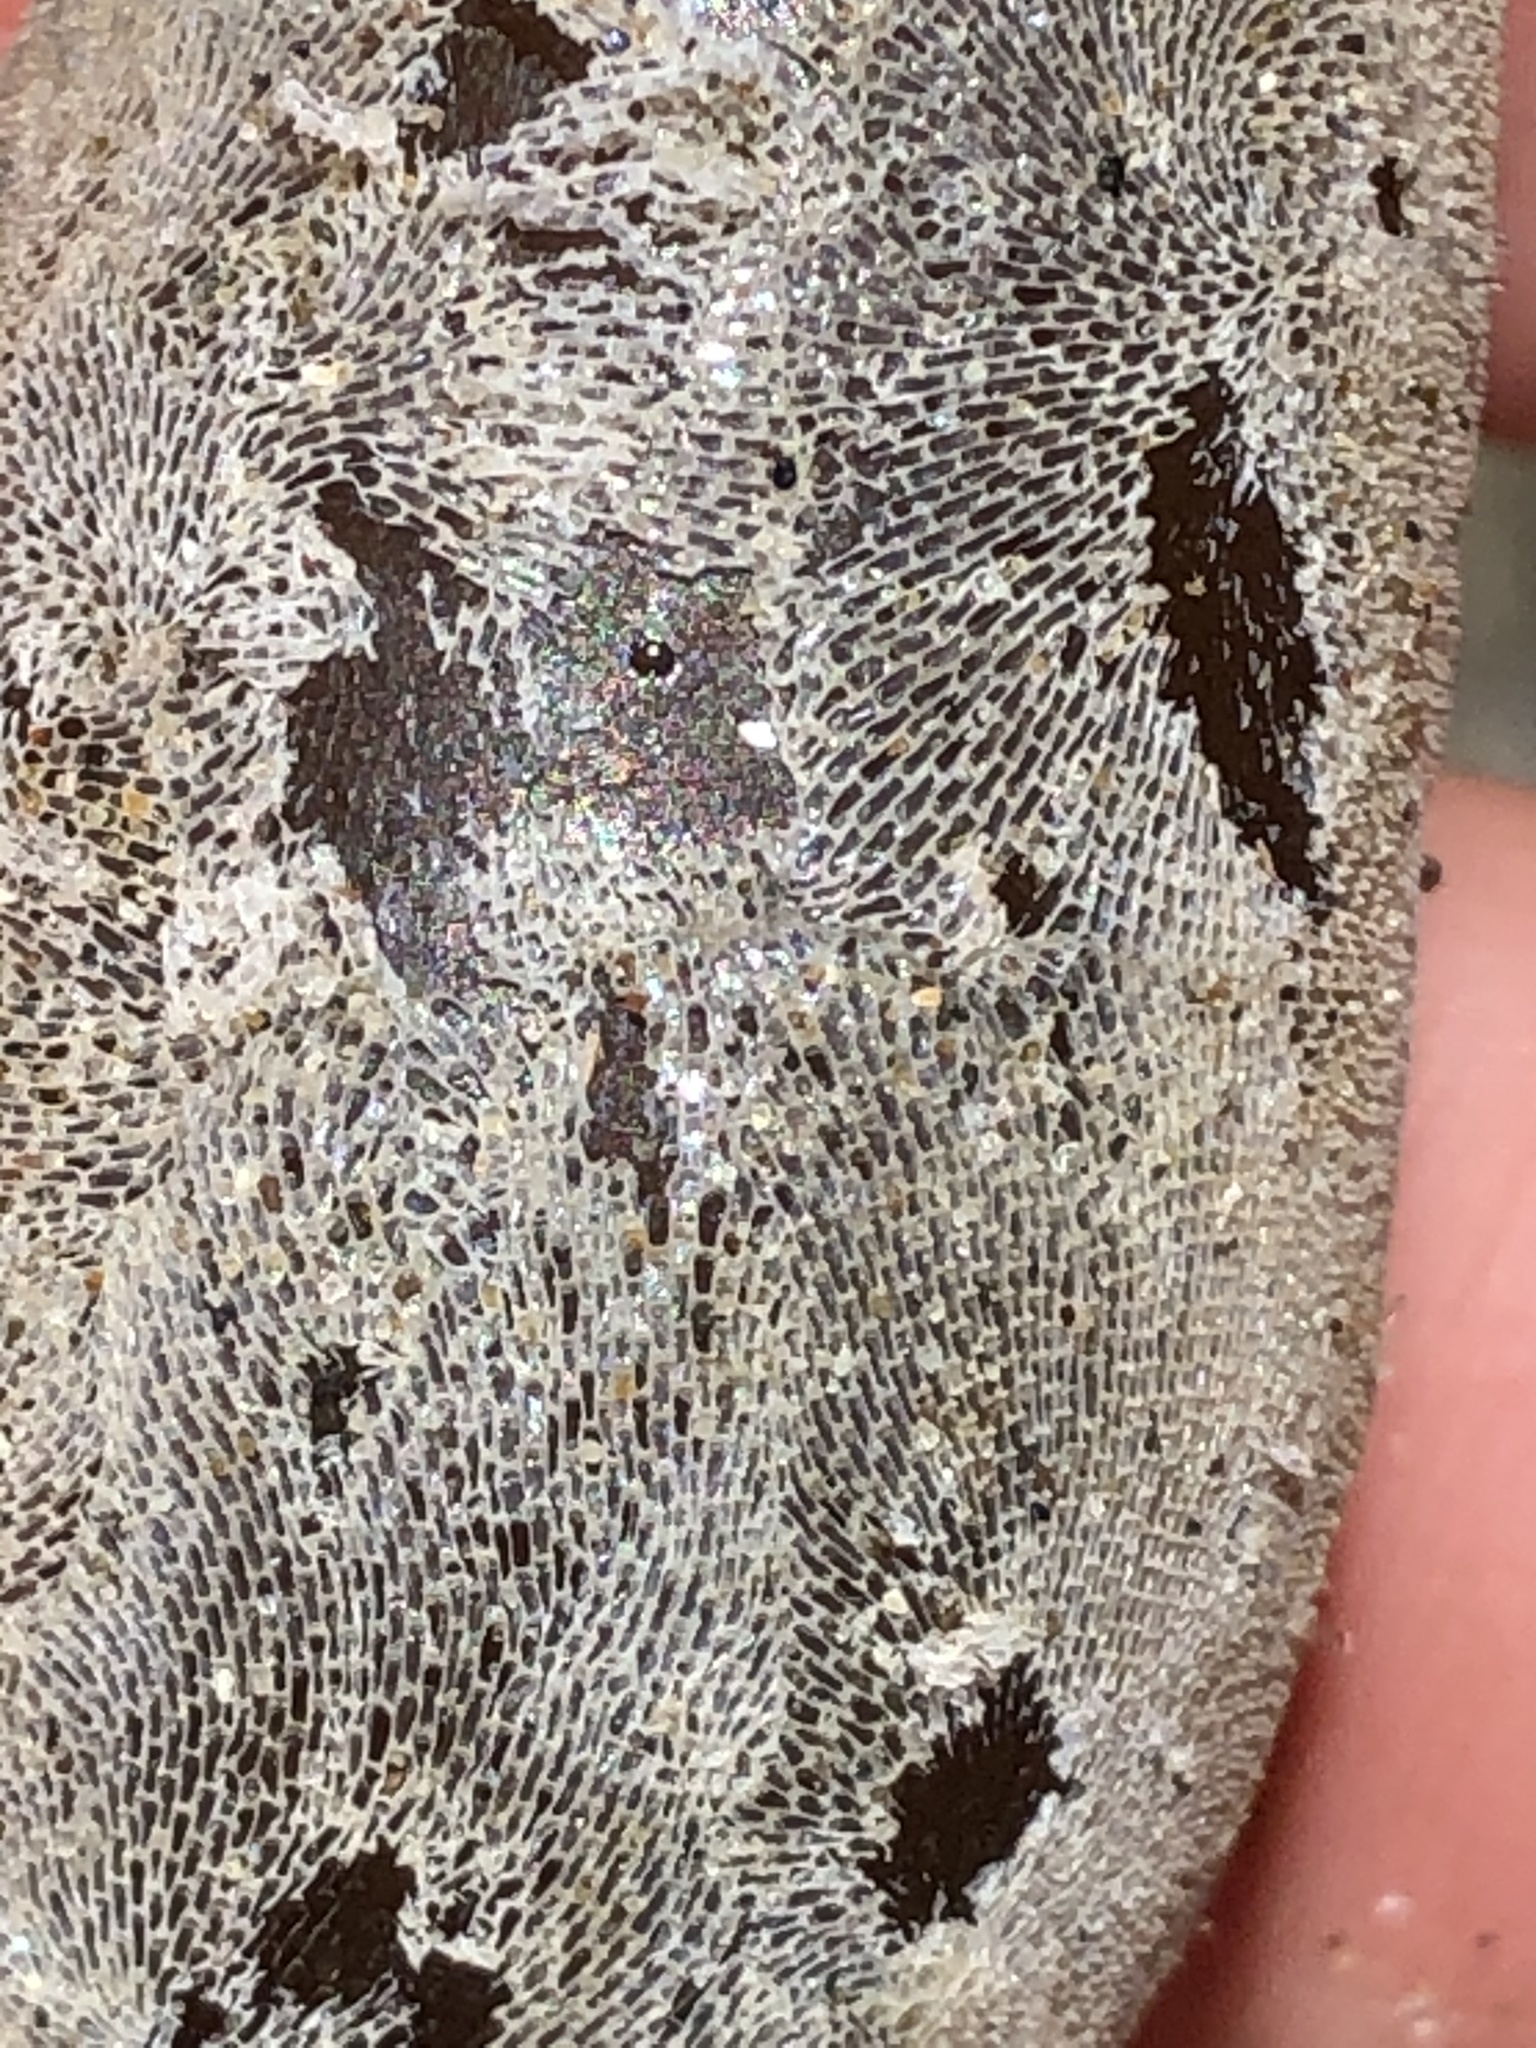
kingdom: Animalia
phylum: Bryozoa
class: Gymnolaemata
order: Cheilostomatida
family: Membraniporidae
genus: Membranipora
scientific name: Membranipora membranacea
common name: Sea mat
